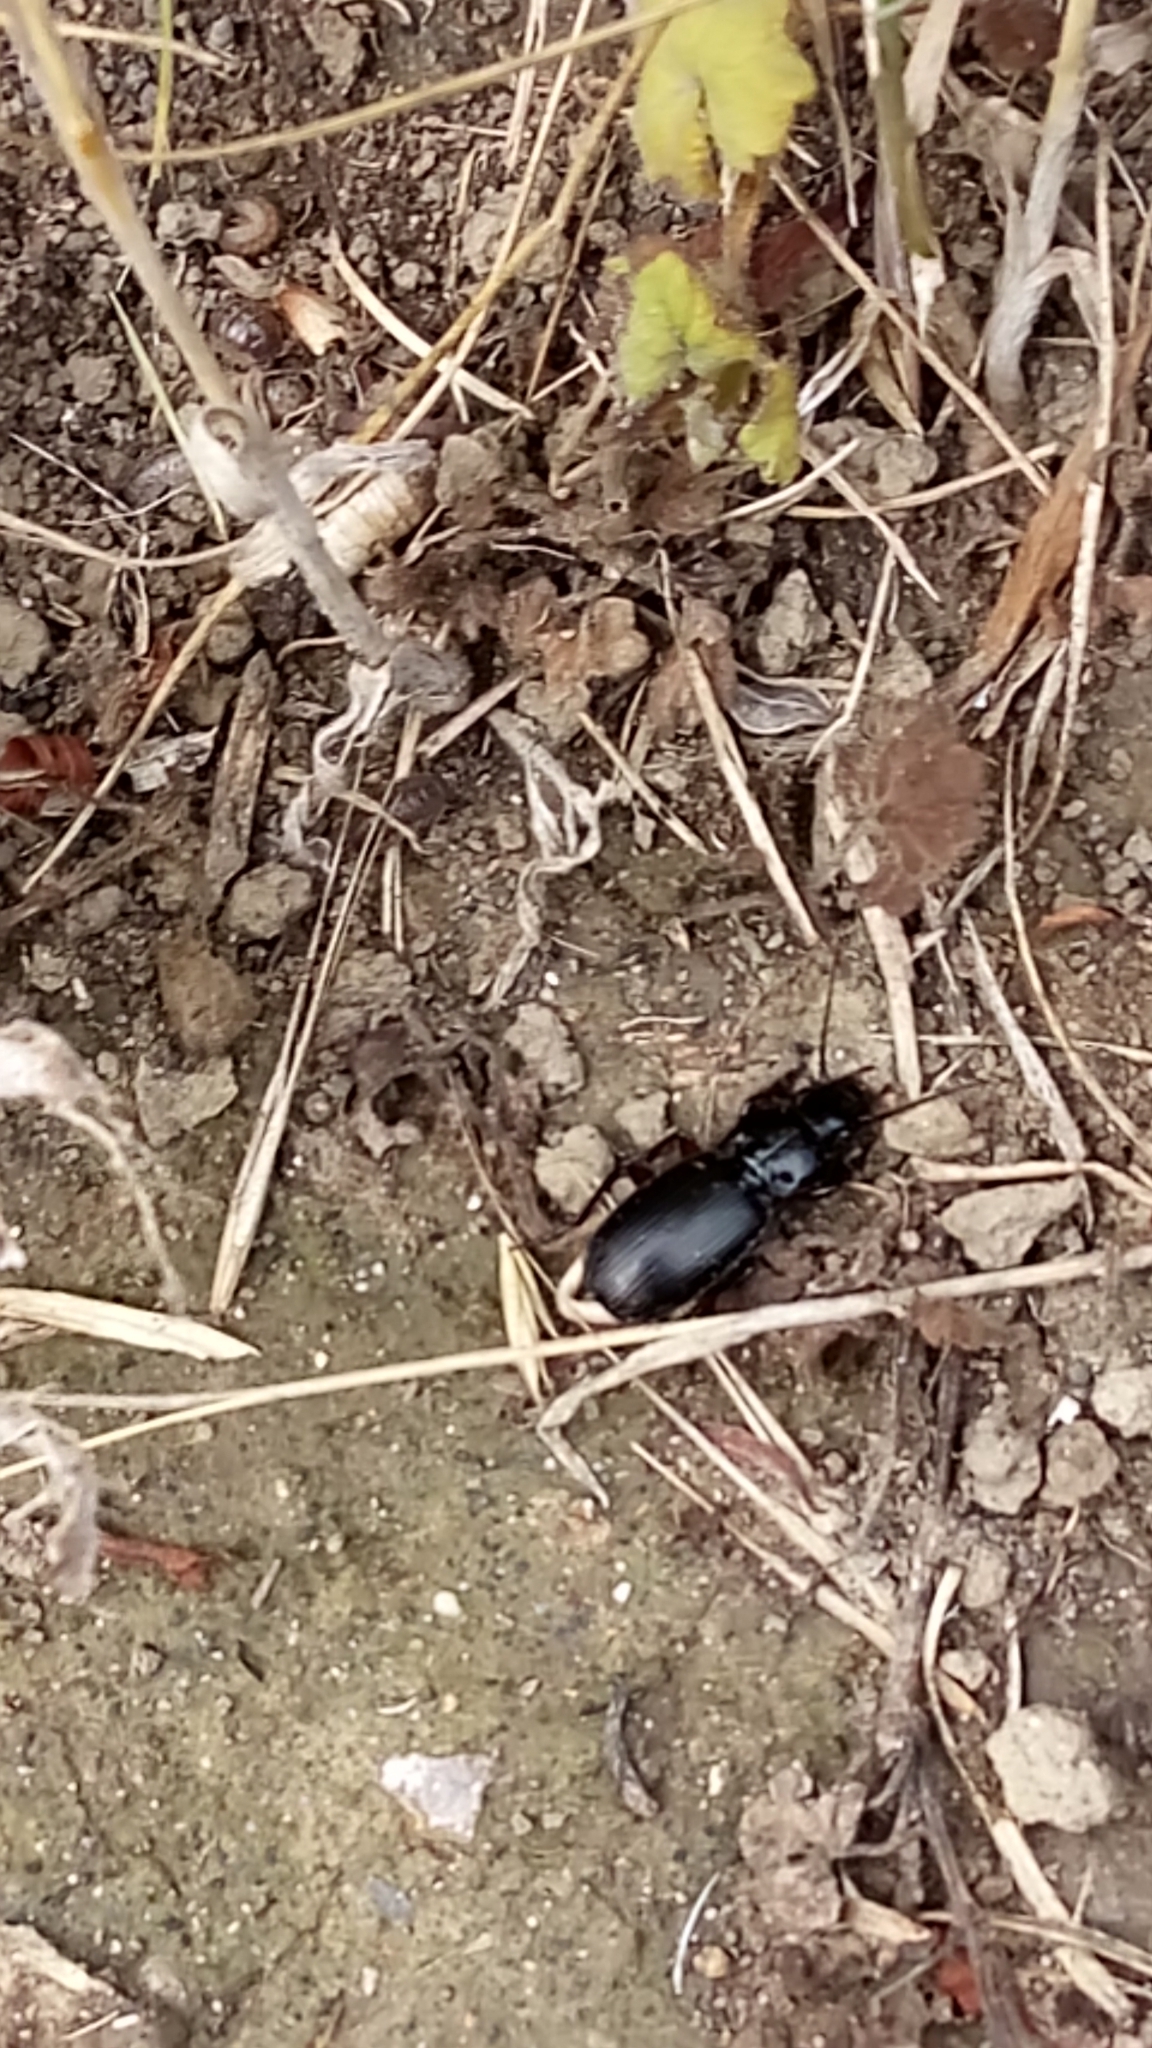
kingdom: Animalia
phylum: Arthropoda
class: Insecta
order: Coleoptera
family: Carabidae
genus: Pterostichus
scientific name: Pterostichus madidus
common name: Black clock
